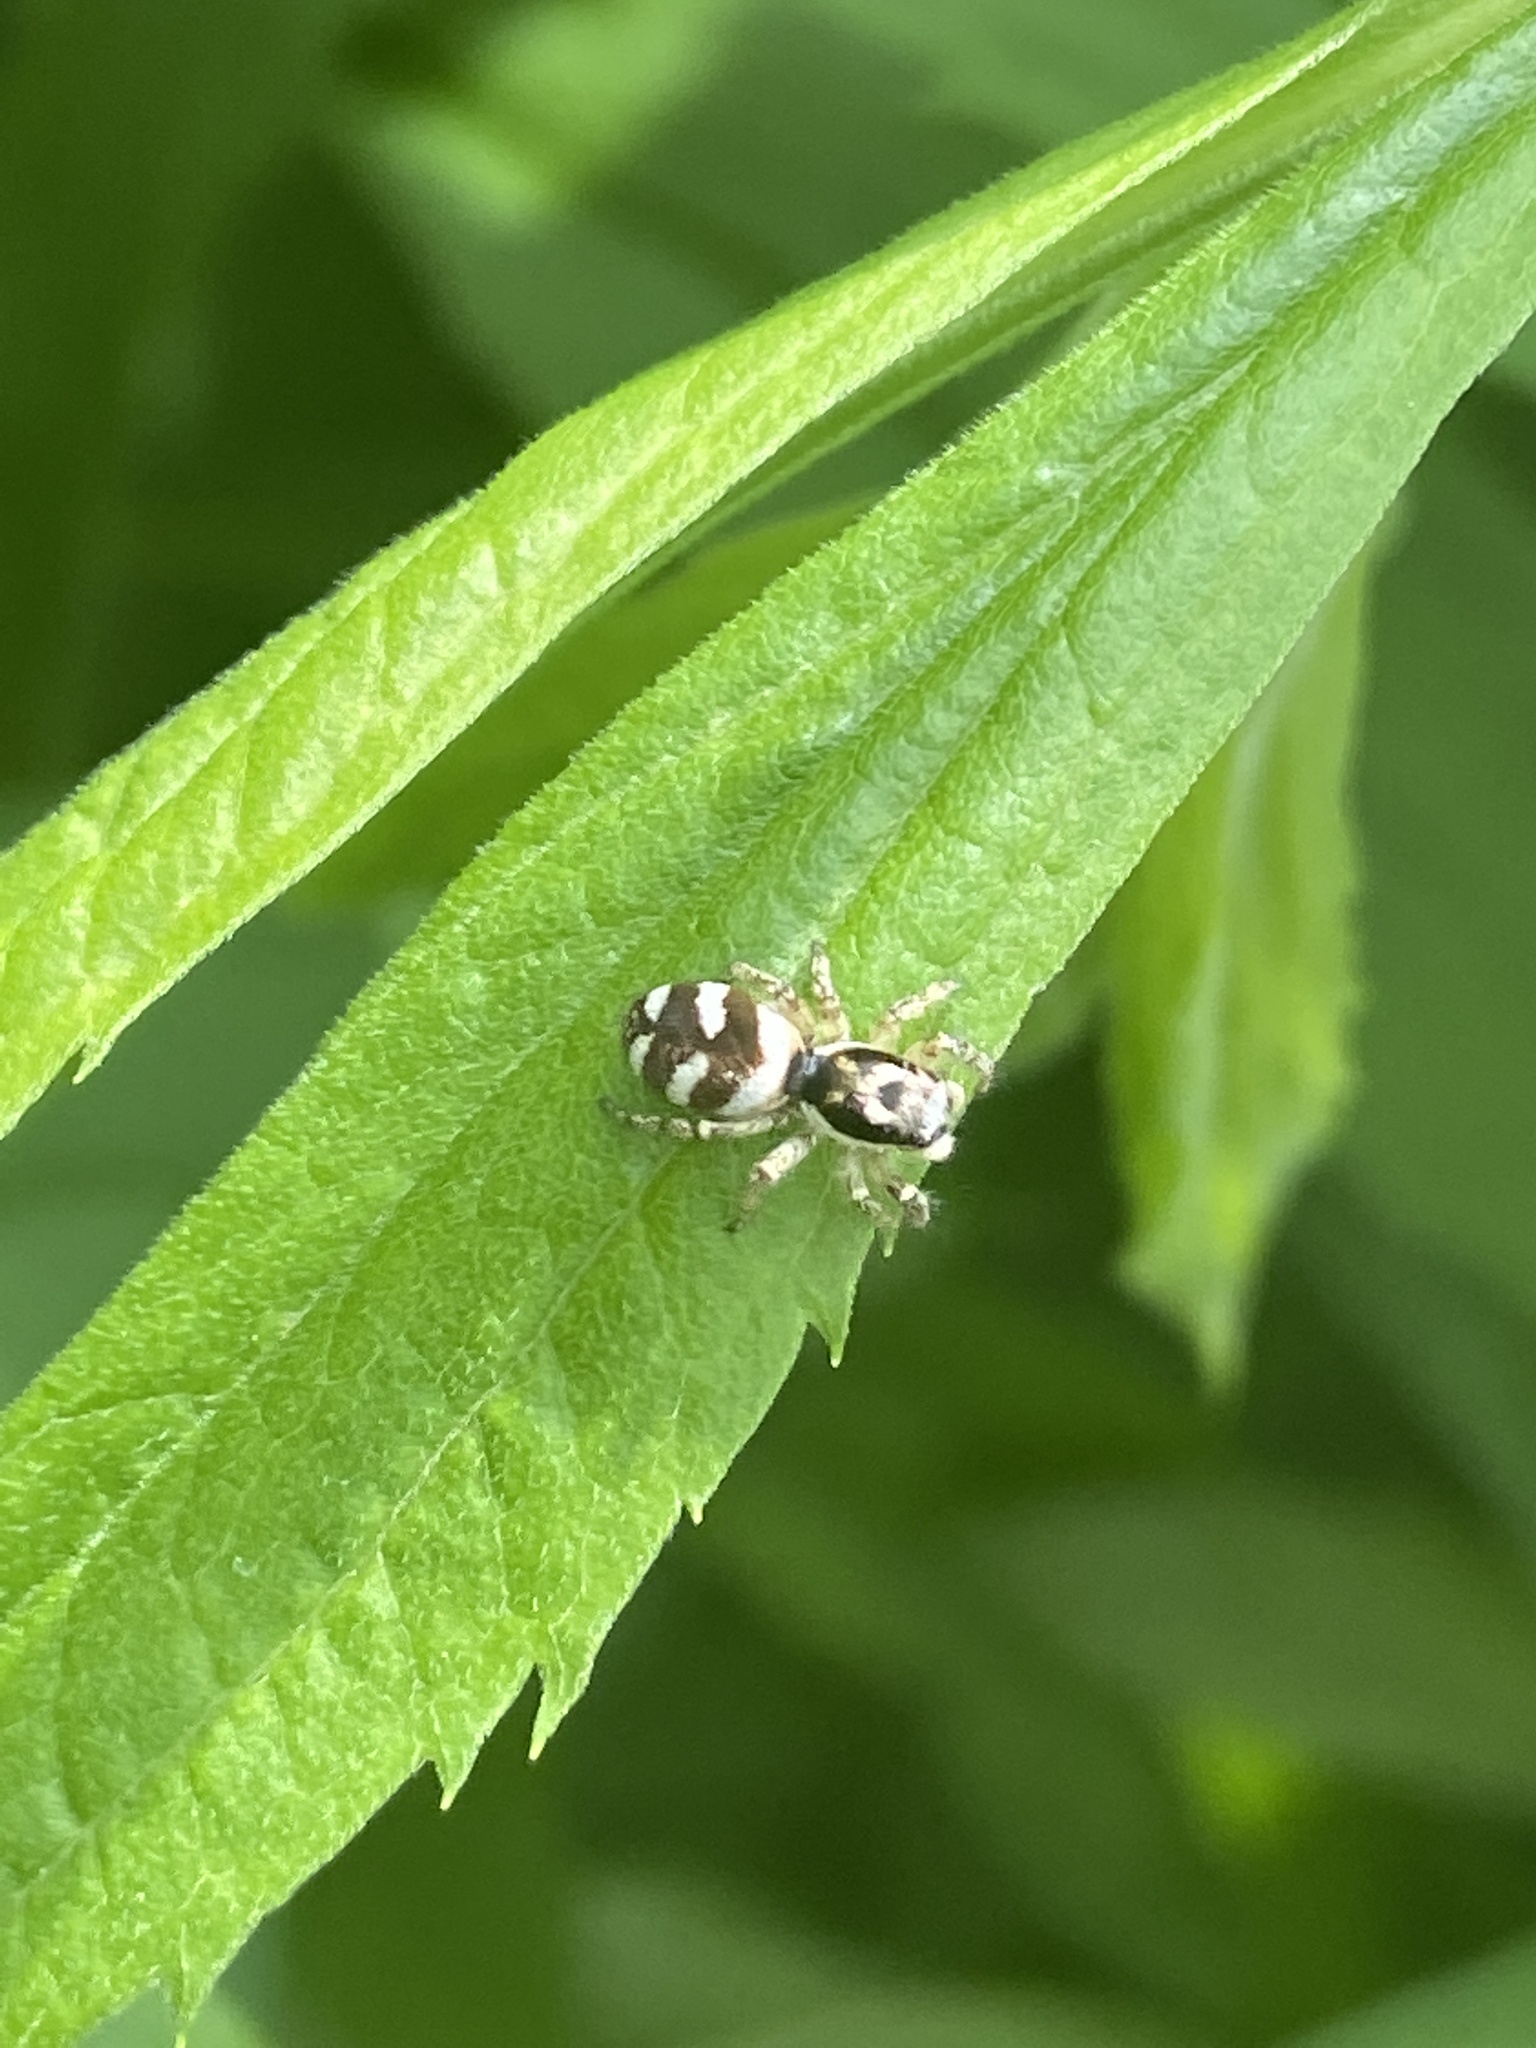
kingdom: Animalia
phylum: Arthropoda
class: Arachnida
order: Araneae
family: Salticidae
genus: Salticus
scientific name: Salticus scenicus
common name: Zebra jumper
